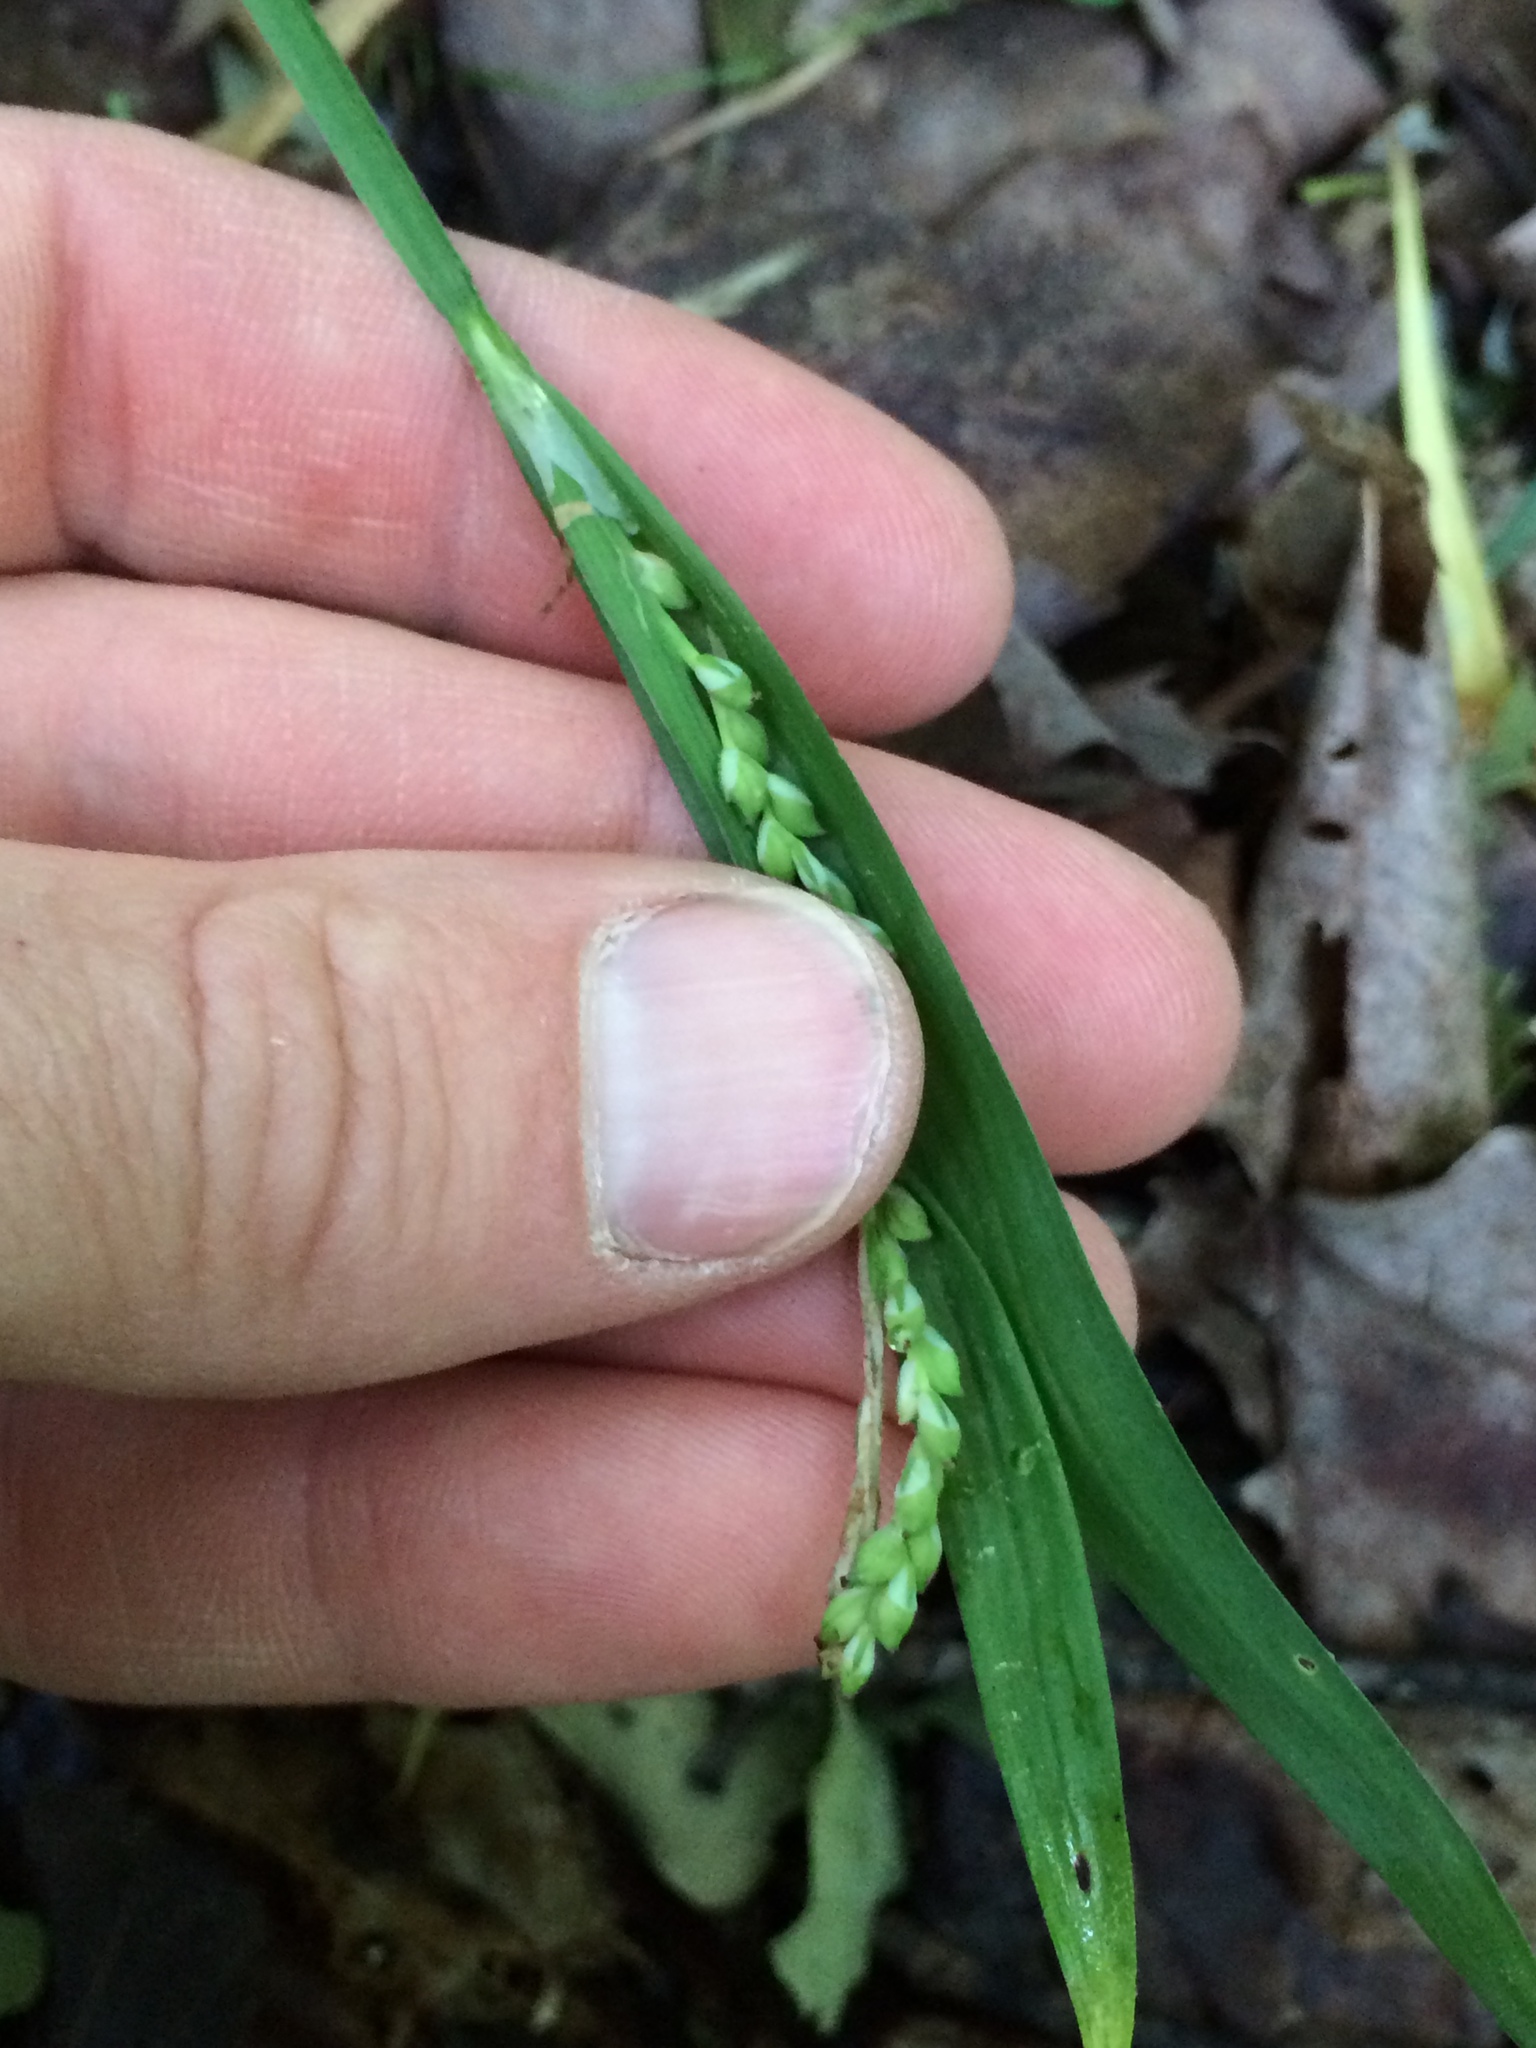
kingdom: Plantae
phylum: Tracheophyta
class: Liliopsida
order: Poales
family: Cyperaceae
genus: Carex
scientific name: Carex albursina
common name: Blunt-scale wood sedge
